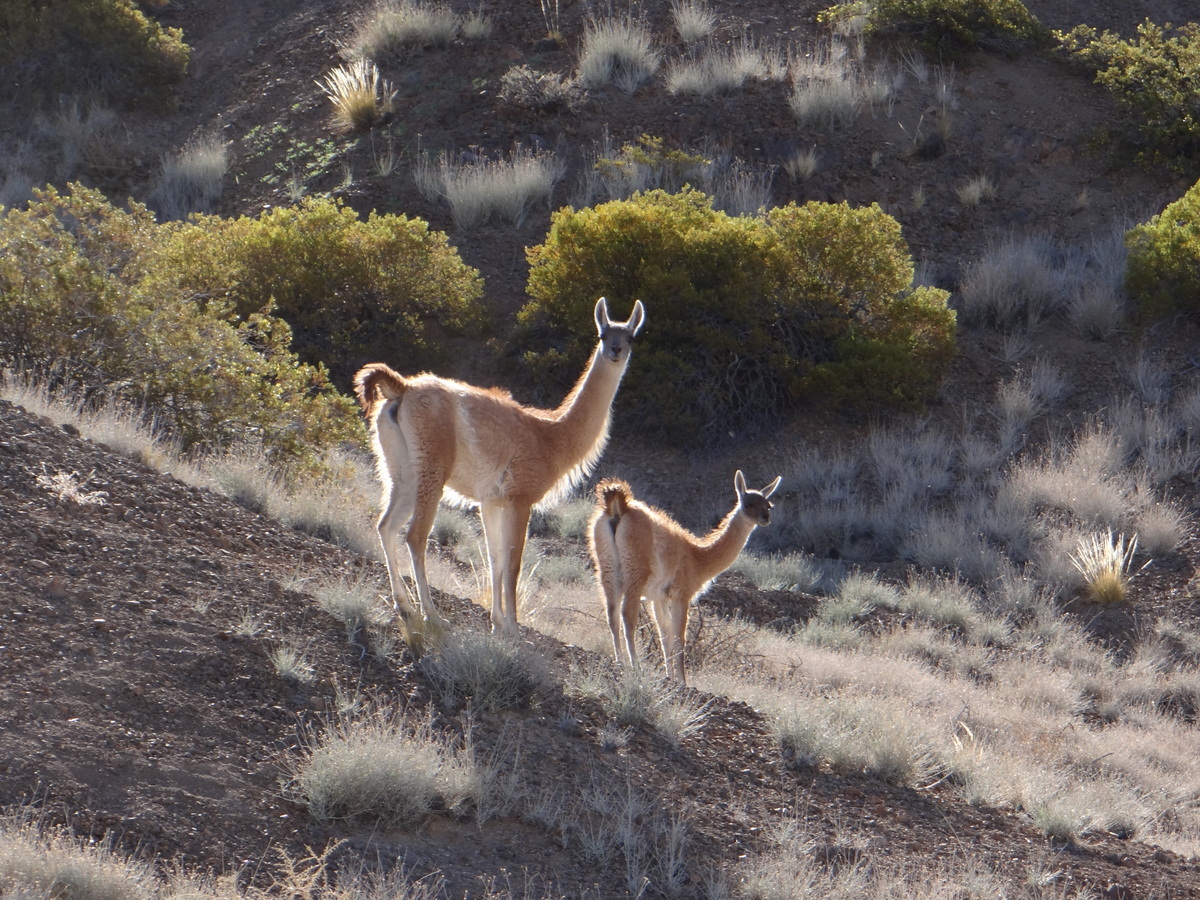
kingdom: Animalia
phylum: Chordata
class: Mammalia
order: Artiodactyla
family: Camelidae
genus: Lama
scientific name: Lama glama
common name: Llama
